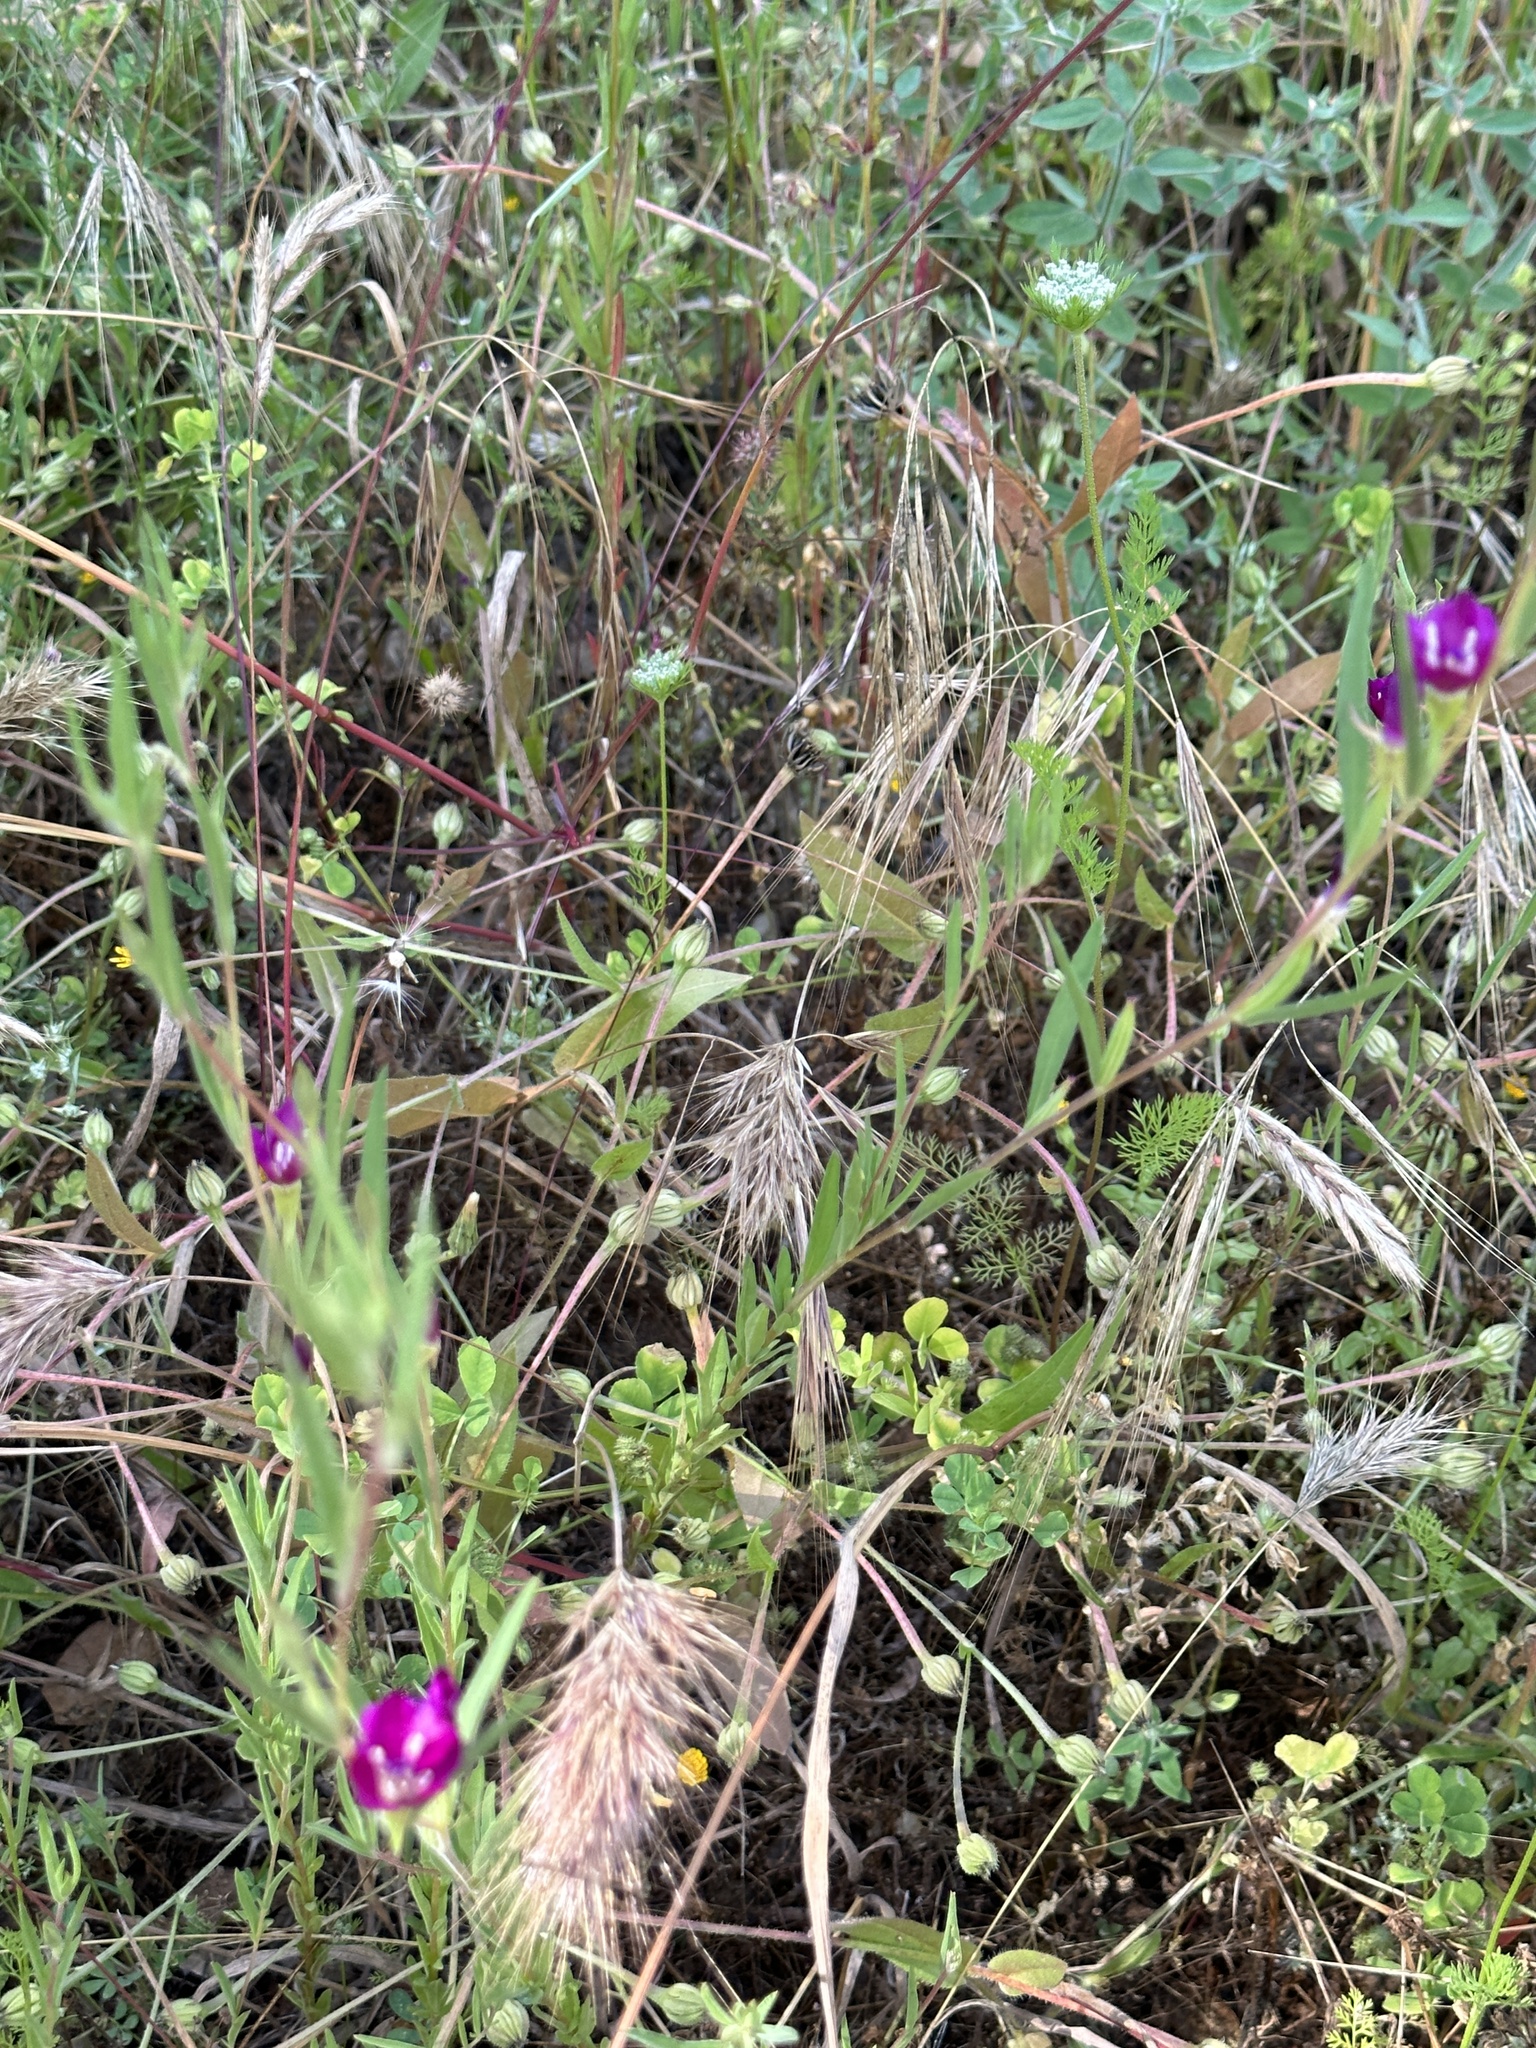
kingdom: Plantae
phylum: Tracheophyta
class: Magnoliopsida
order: Myrtales
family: Onagraceae
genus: Clarkia
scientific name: Clarkia purpurea
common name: Purple clarkia
